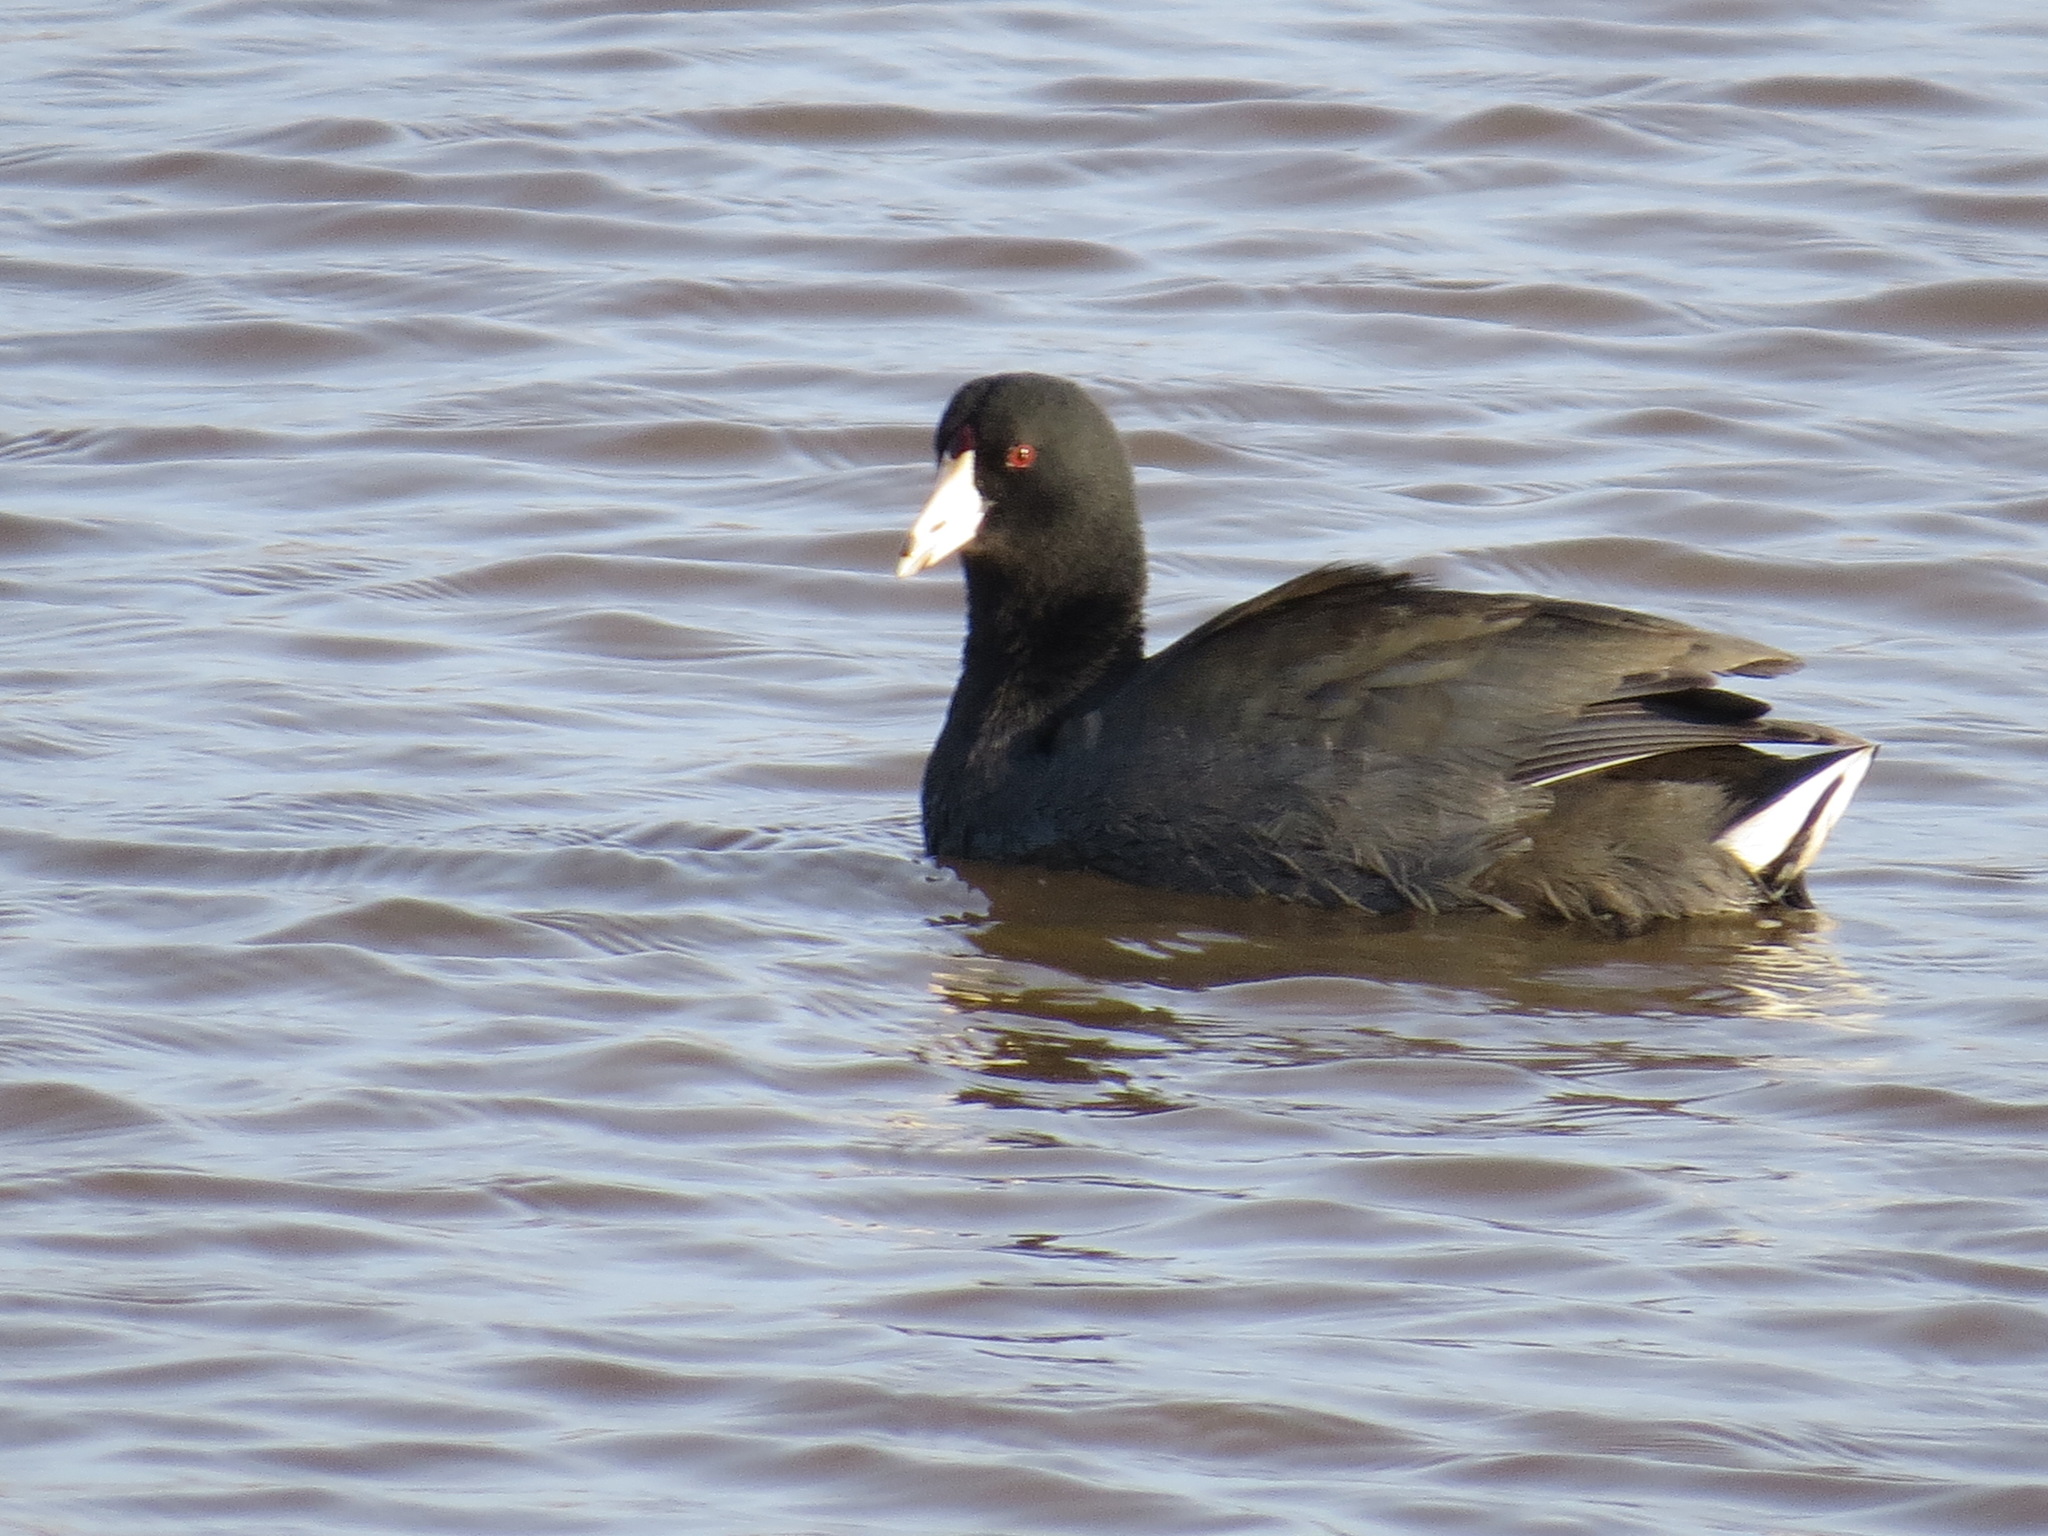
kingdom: Animalia
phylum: Chordata
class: Aves
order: Gruiformes
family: Rallidae
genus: Fulica
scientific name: Fulica americana
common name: American coot
